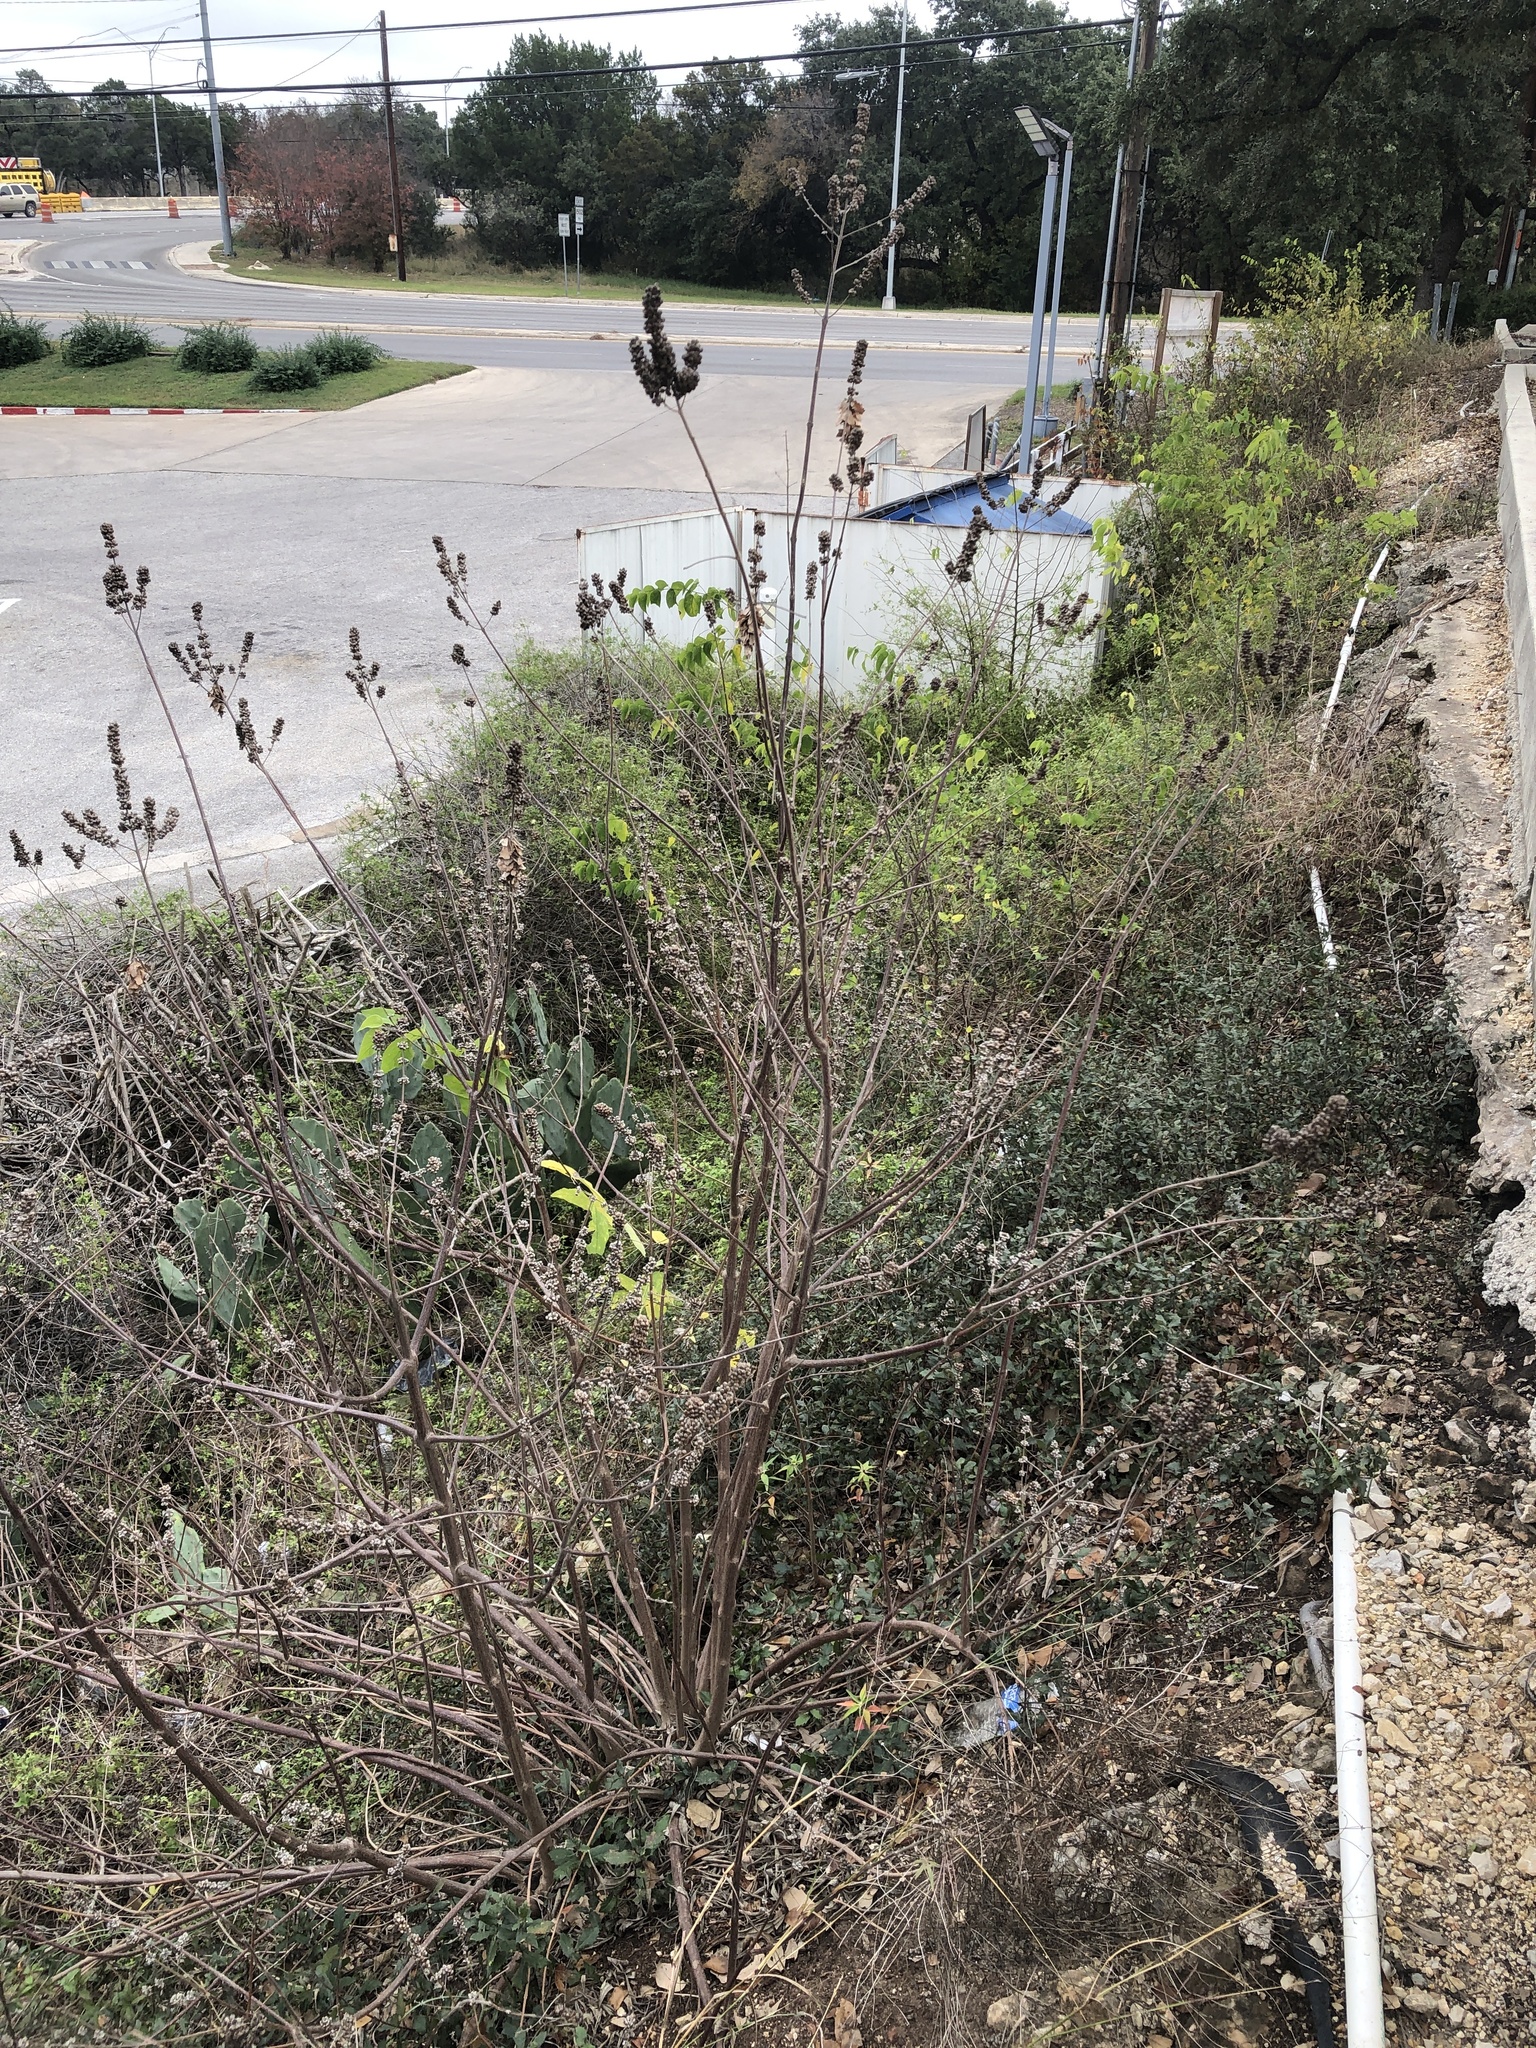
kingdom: Plantae
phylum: Tracheophyta
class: Magnoliopsida
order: Lamiales
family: Lamiaceae
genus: Vitex
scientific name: Vitex agnus-castus
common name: Chasteberry
